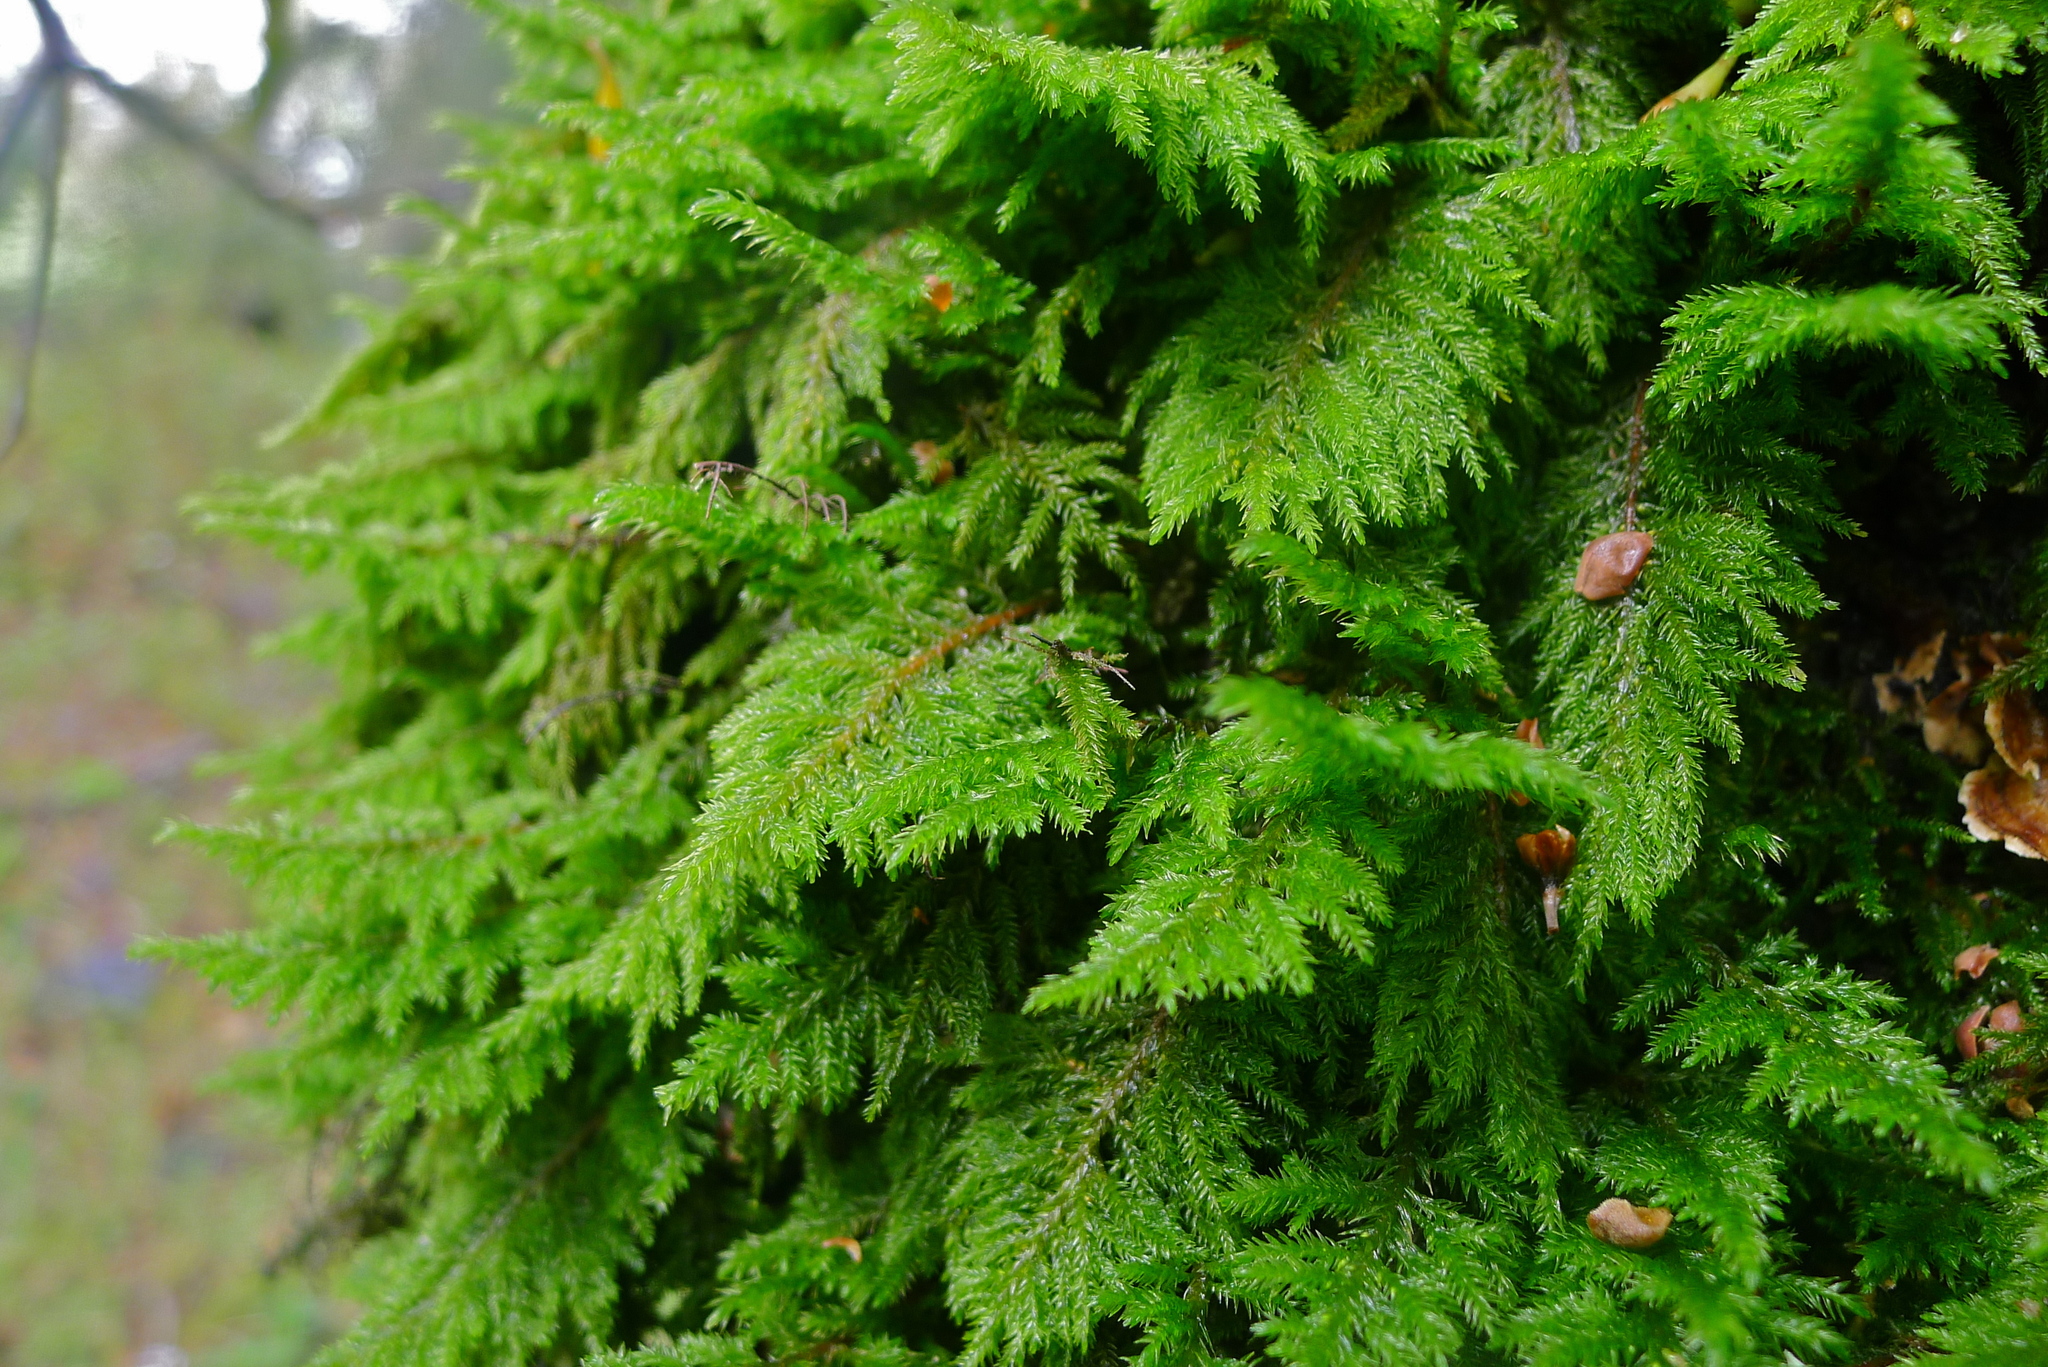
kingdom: Plantae
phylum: Bryophyta
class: Bryopsida
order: Hypnales
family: Cryphaeaceae
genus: Dendroalsia
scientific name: Dendroalsia abietina
